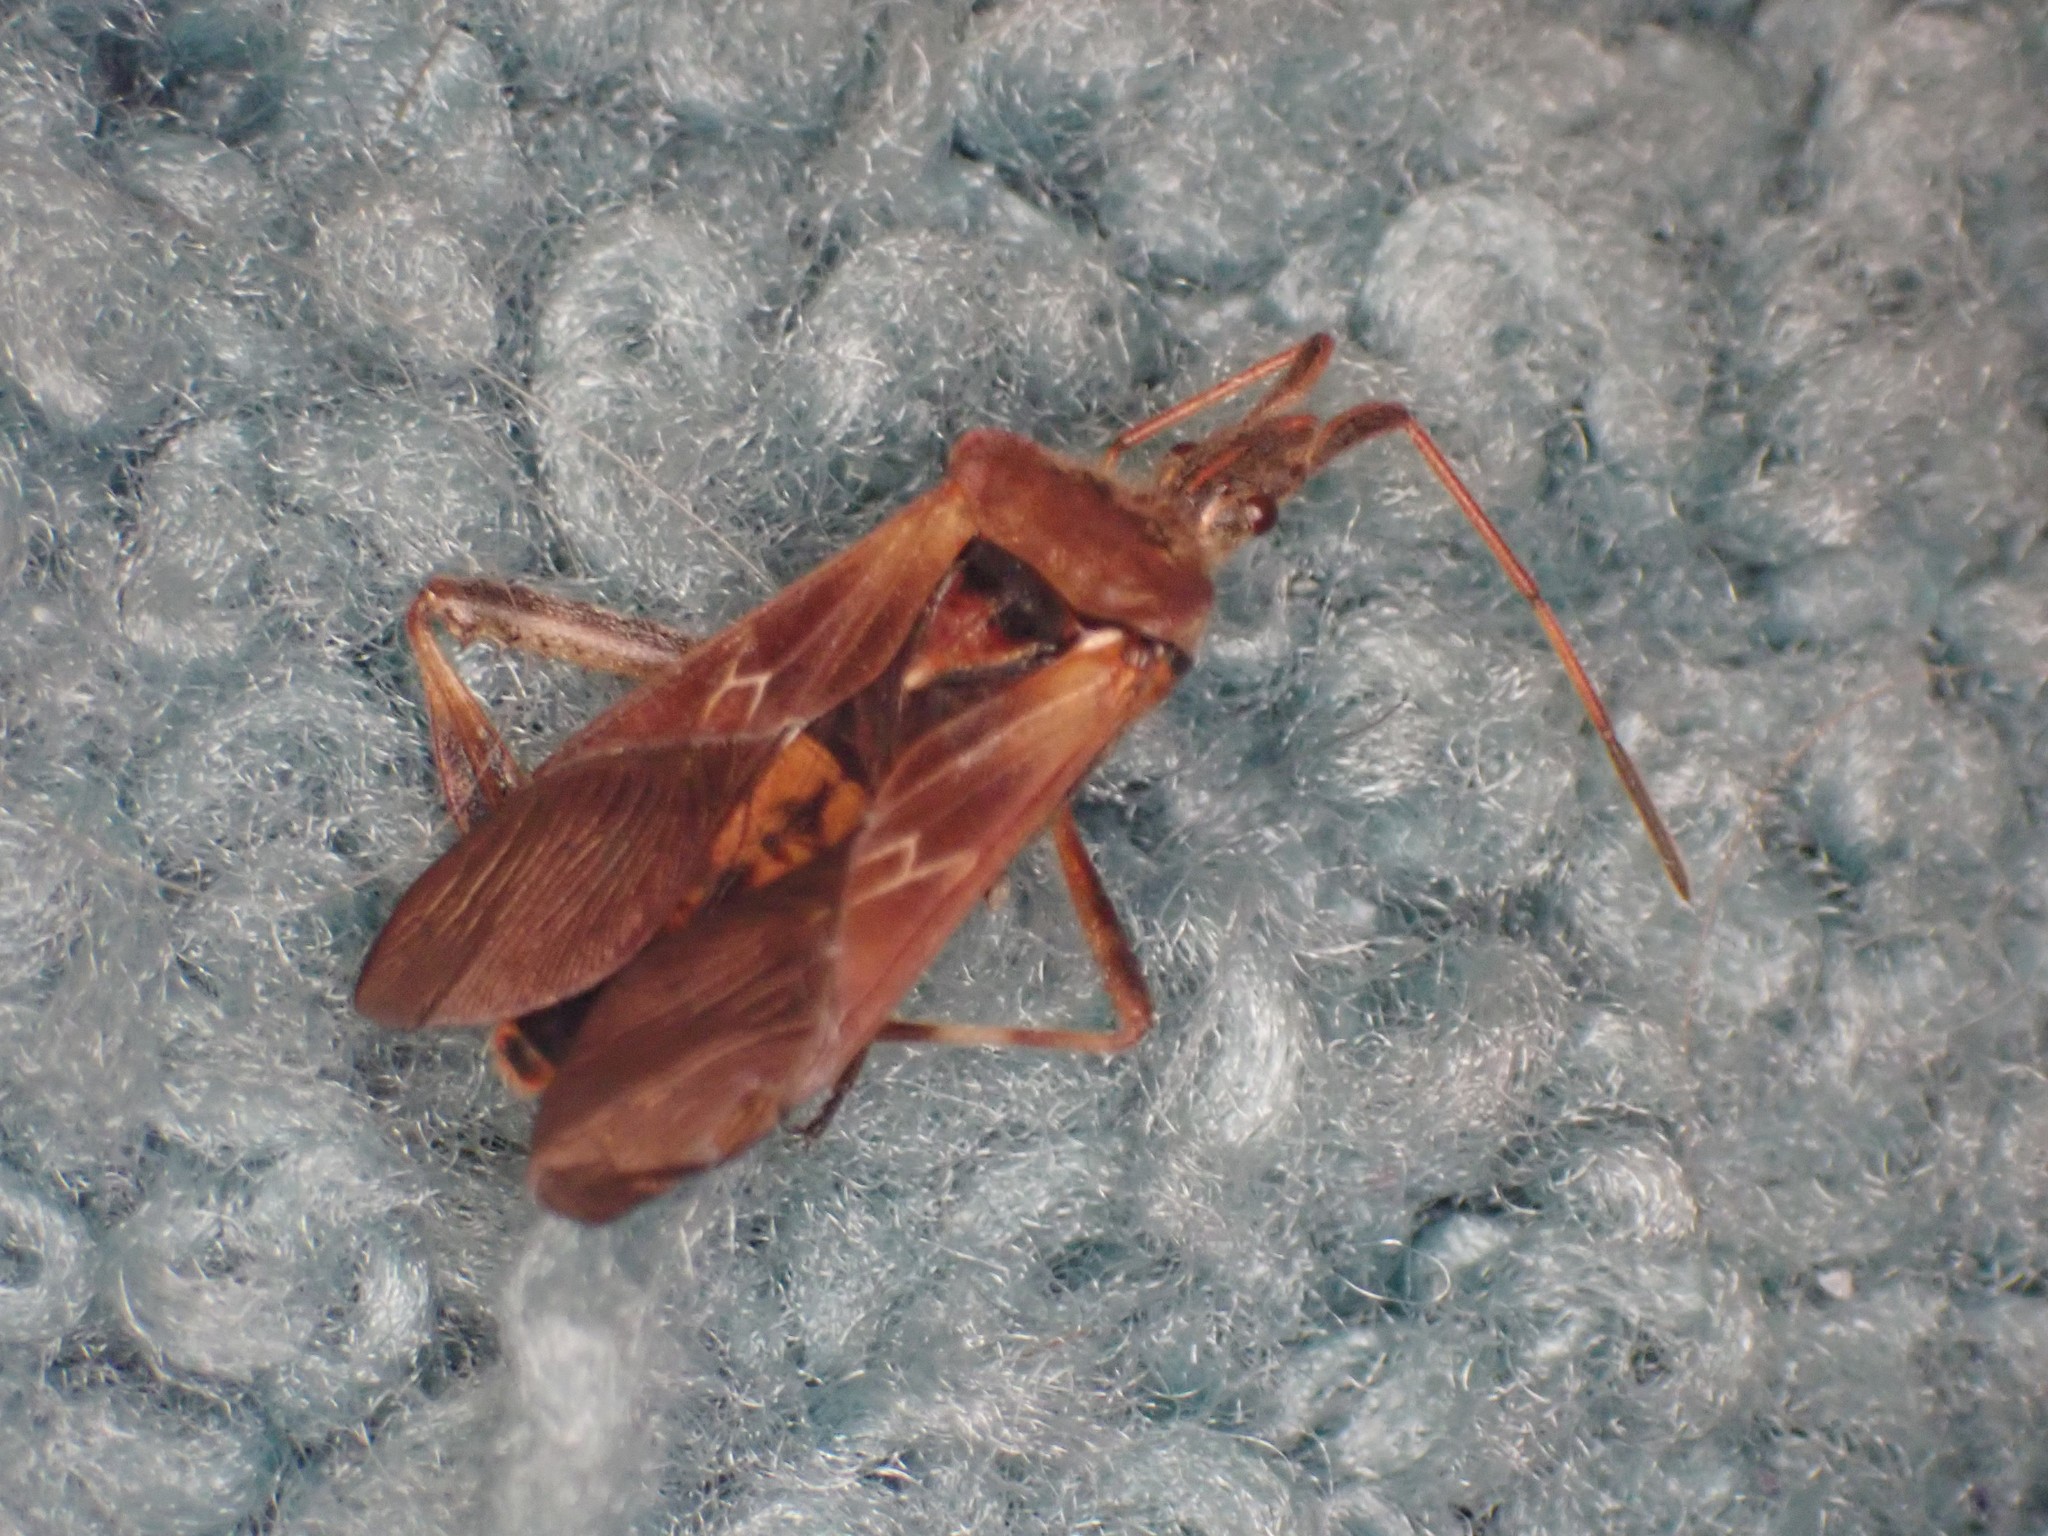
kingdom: Animalia
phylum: Arthropoda
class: Insecta
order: Hemiptera
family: Coreidae
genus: Leptoglossus
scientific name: Leptoglossus occidentalis
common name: Western conifer-seed bug
